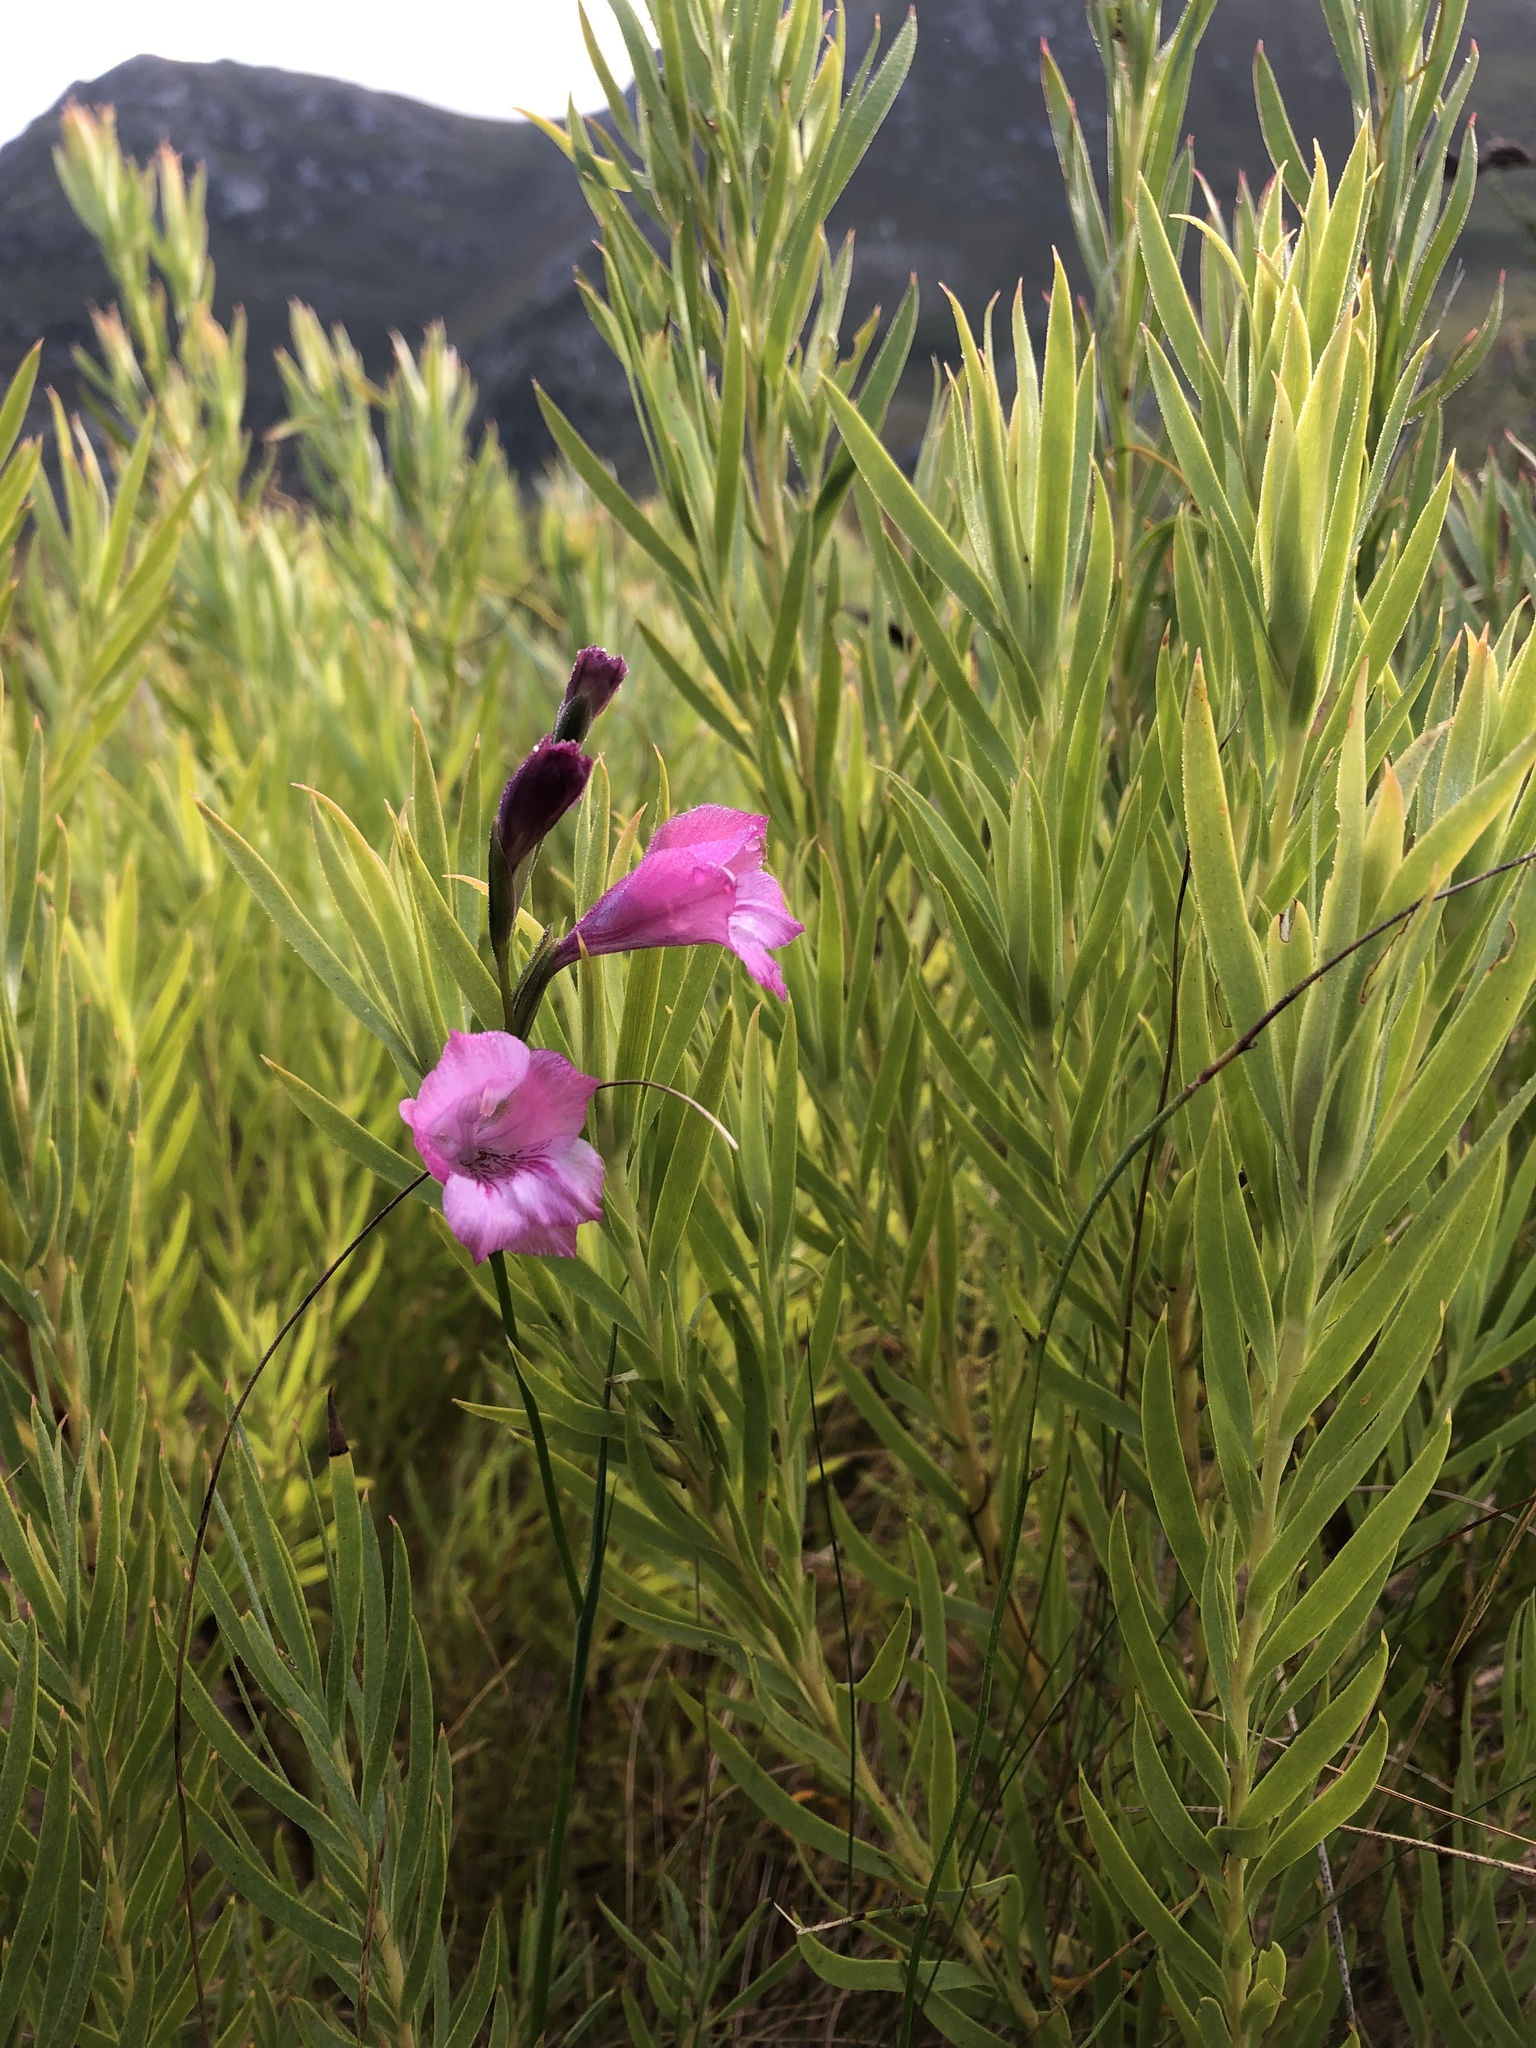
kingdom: Plantae
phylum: Tracheophyta
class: Liliopsida
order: Asparagales
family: Iridaceae
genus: Gladiolus
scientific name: Gladiolus hirsutus
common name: Small pink afrikaner
